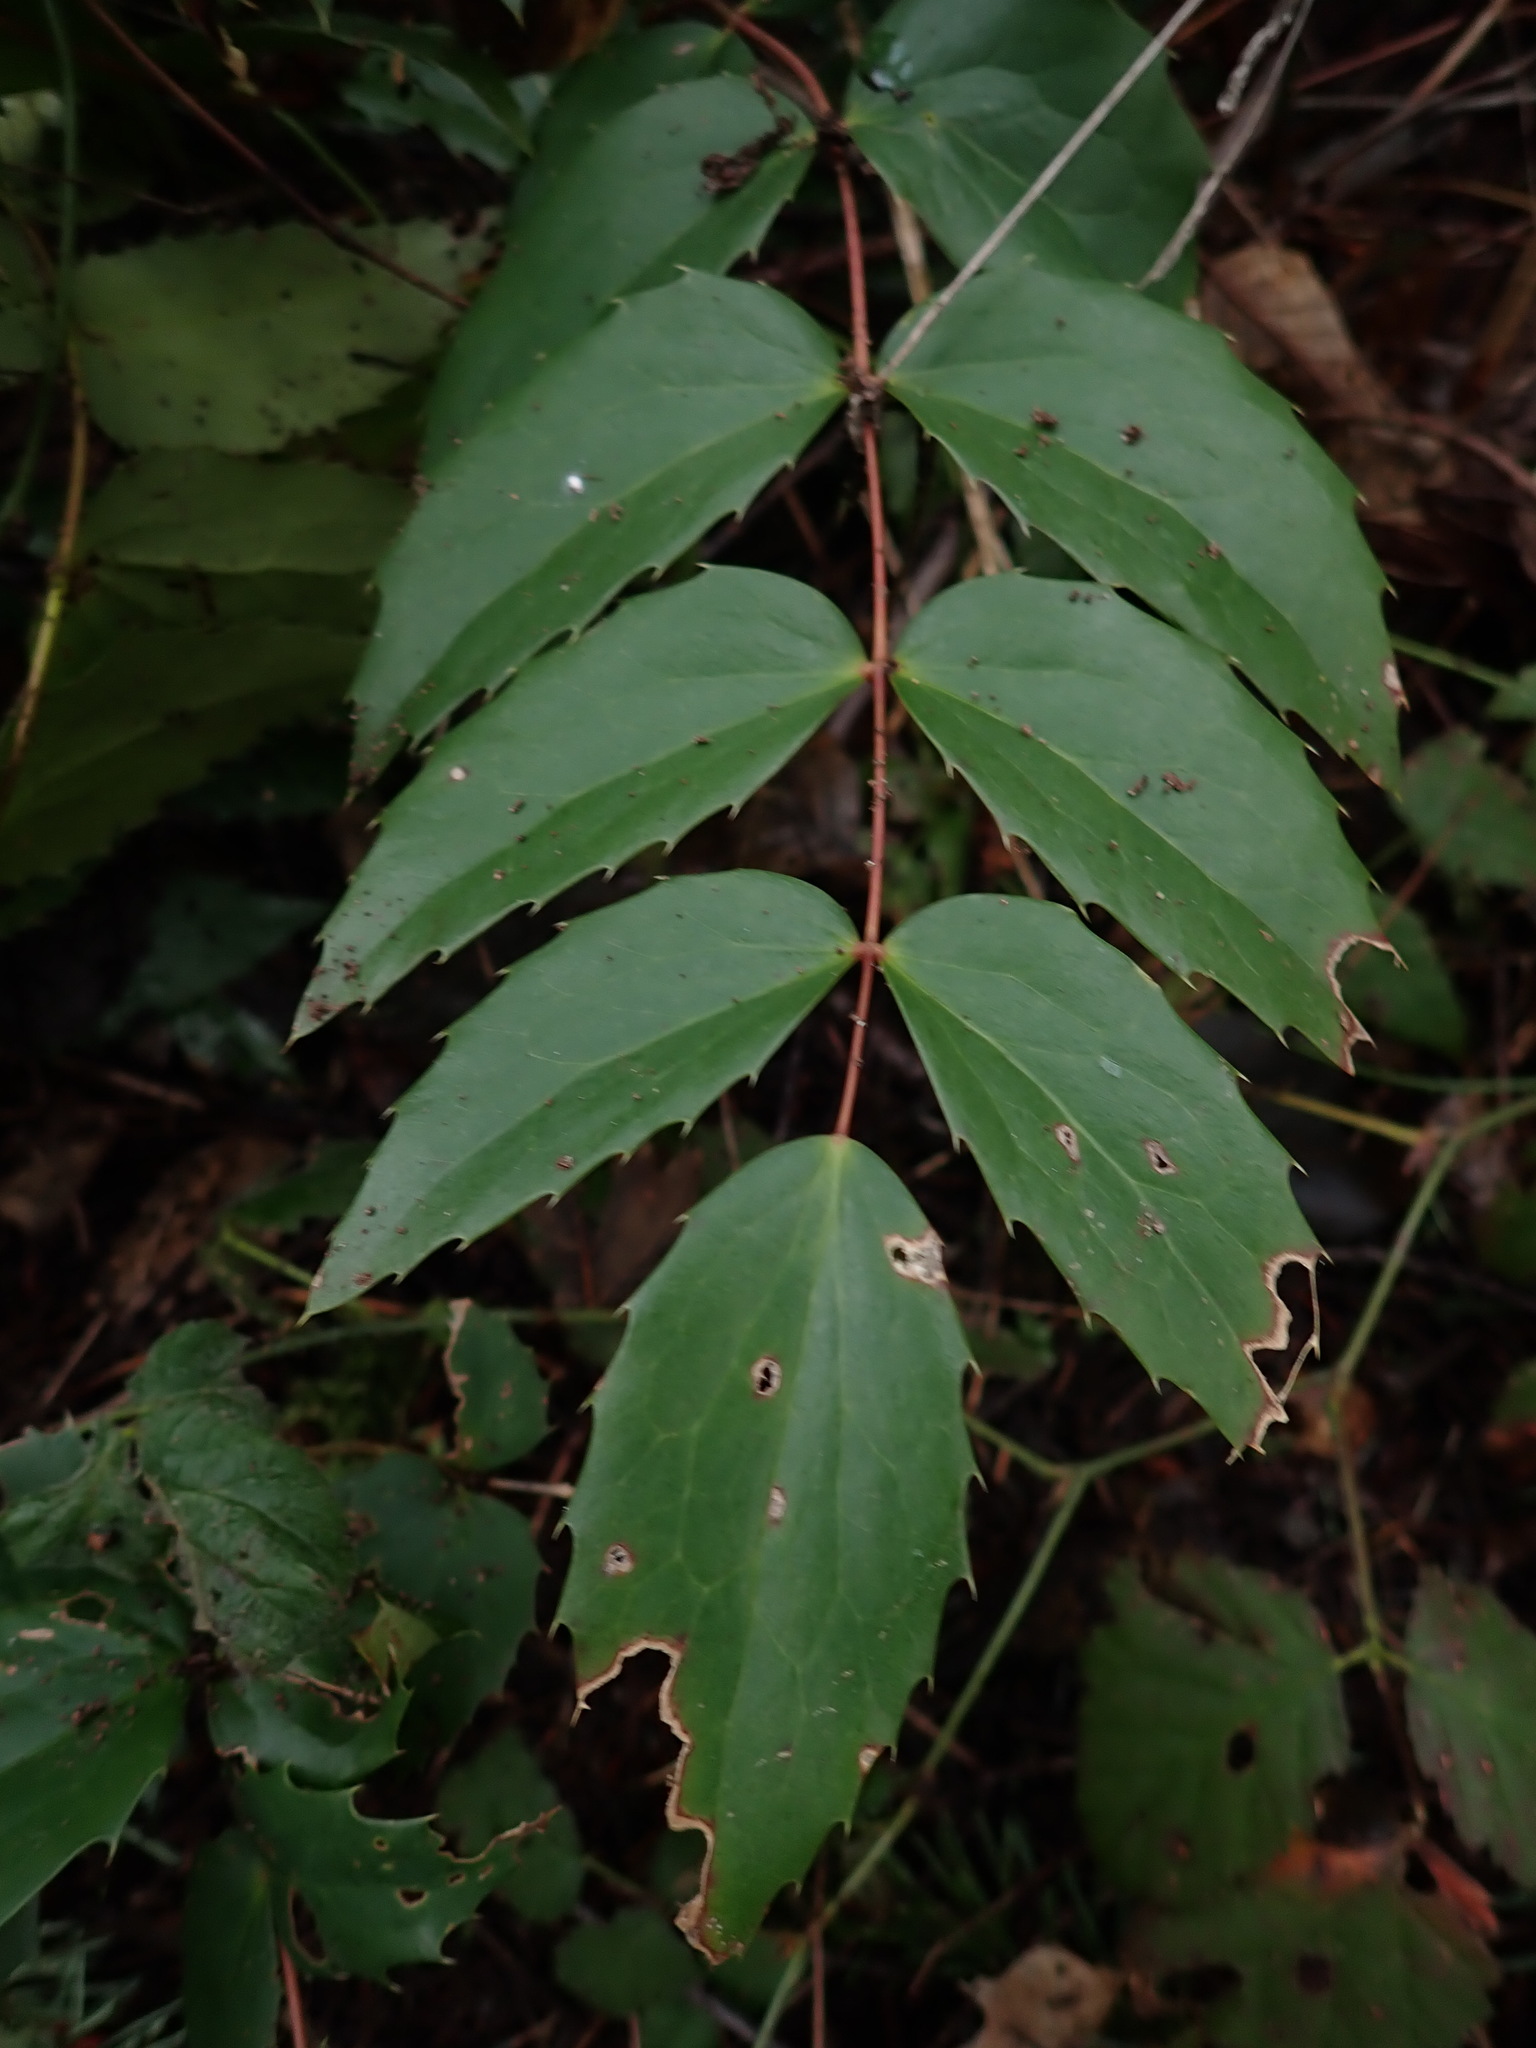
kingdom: Plantae
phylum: Tracheophyta
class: Magnoliopsida
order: Ranunculales
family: Berberidaceae
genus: Mahonia
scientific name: Mahonia nervosa
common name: Cascade oregon-grape
